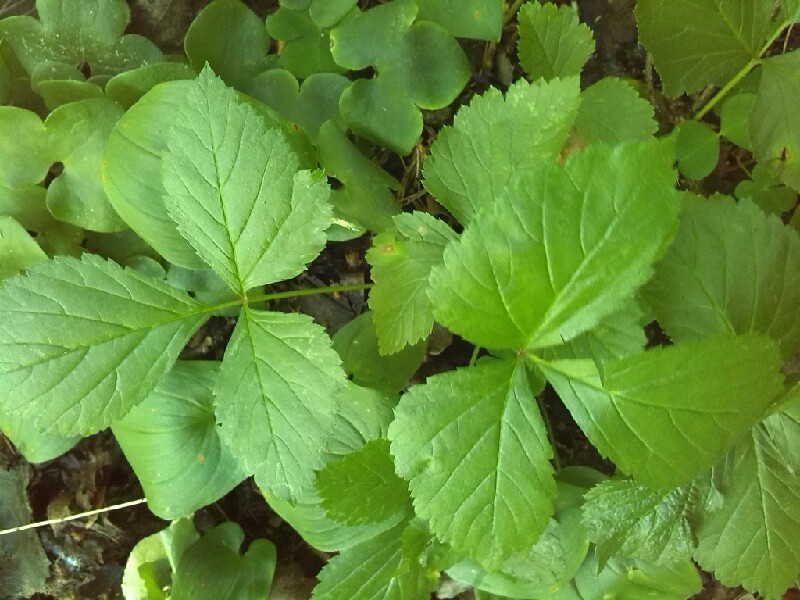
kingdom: Plantae
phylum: Tracheophyta
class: Magnoliopsida
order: Rosales
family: Rosaceae
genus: Rubus
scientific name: Rubus saxatilis
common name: Stone bramble
